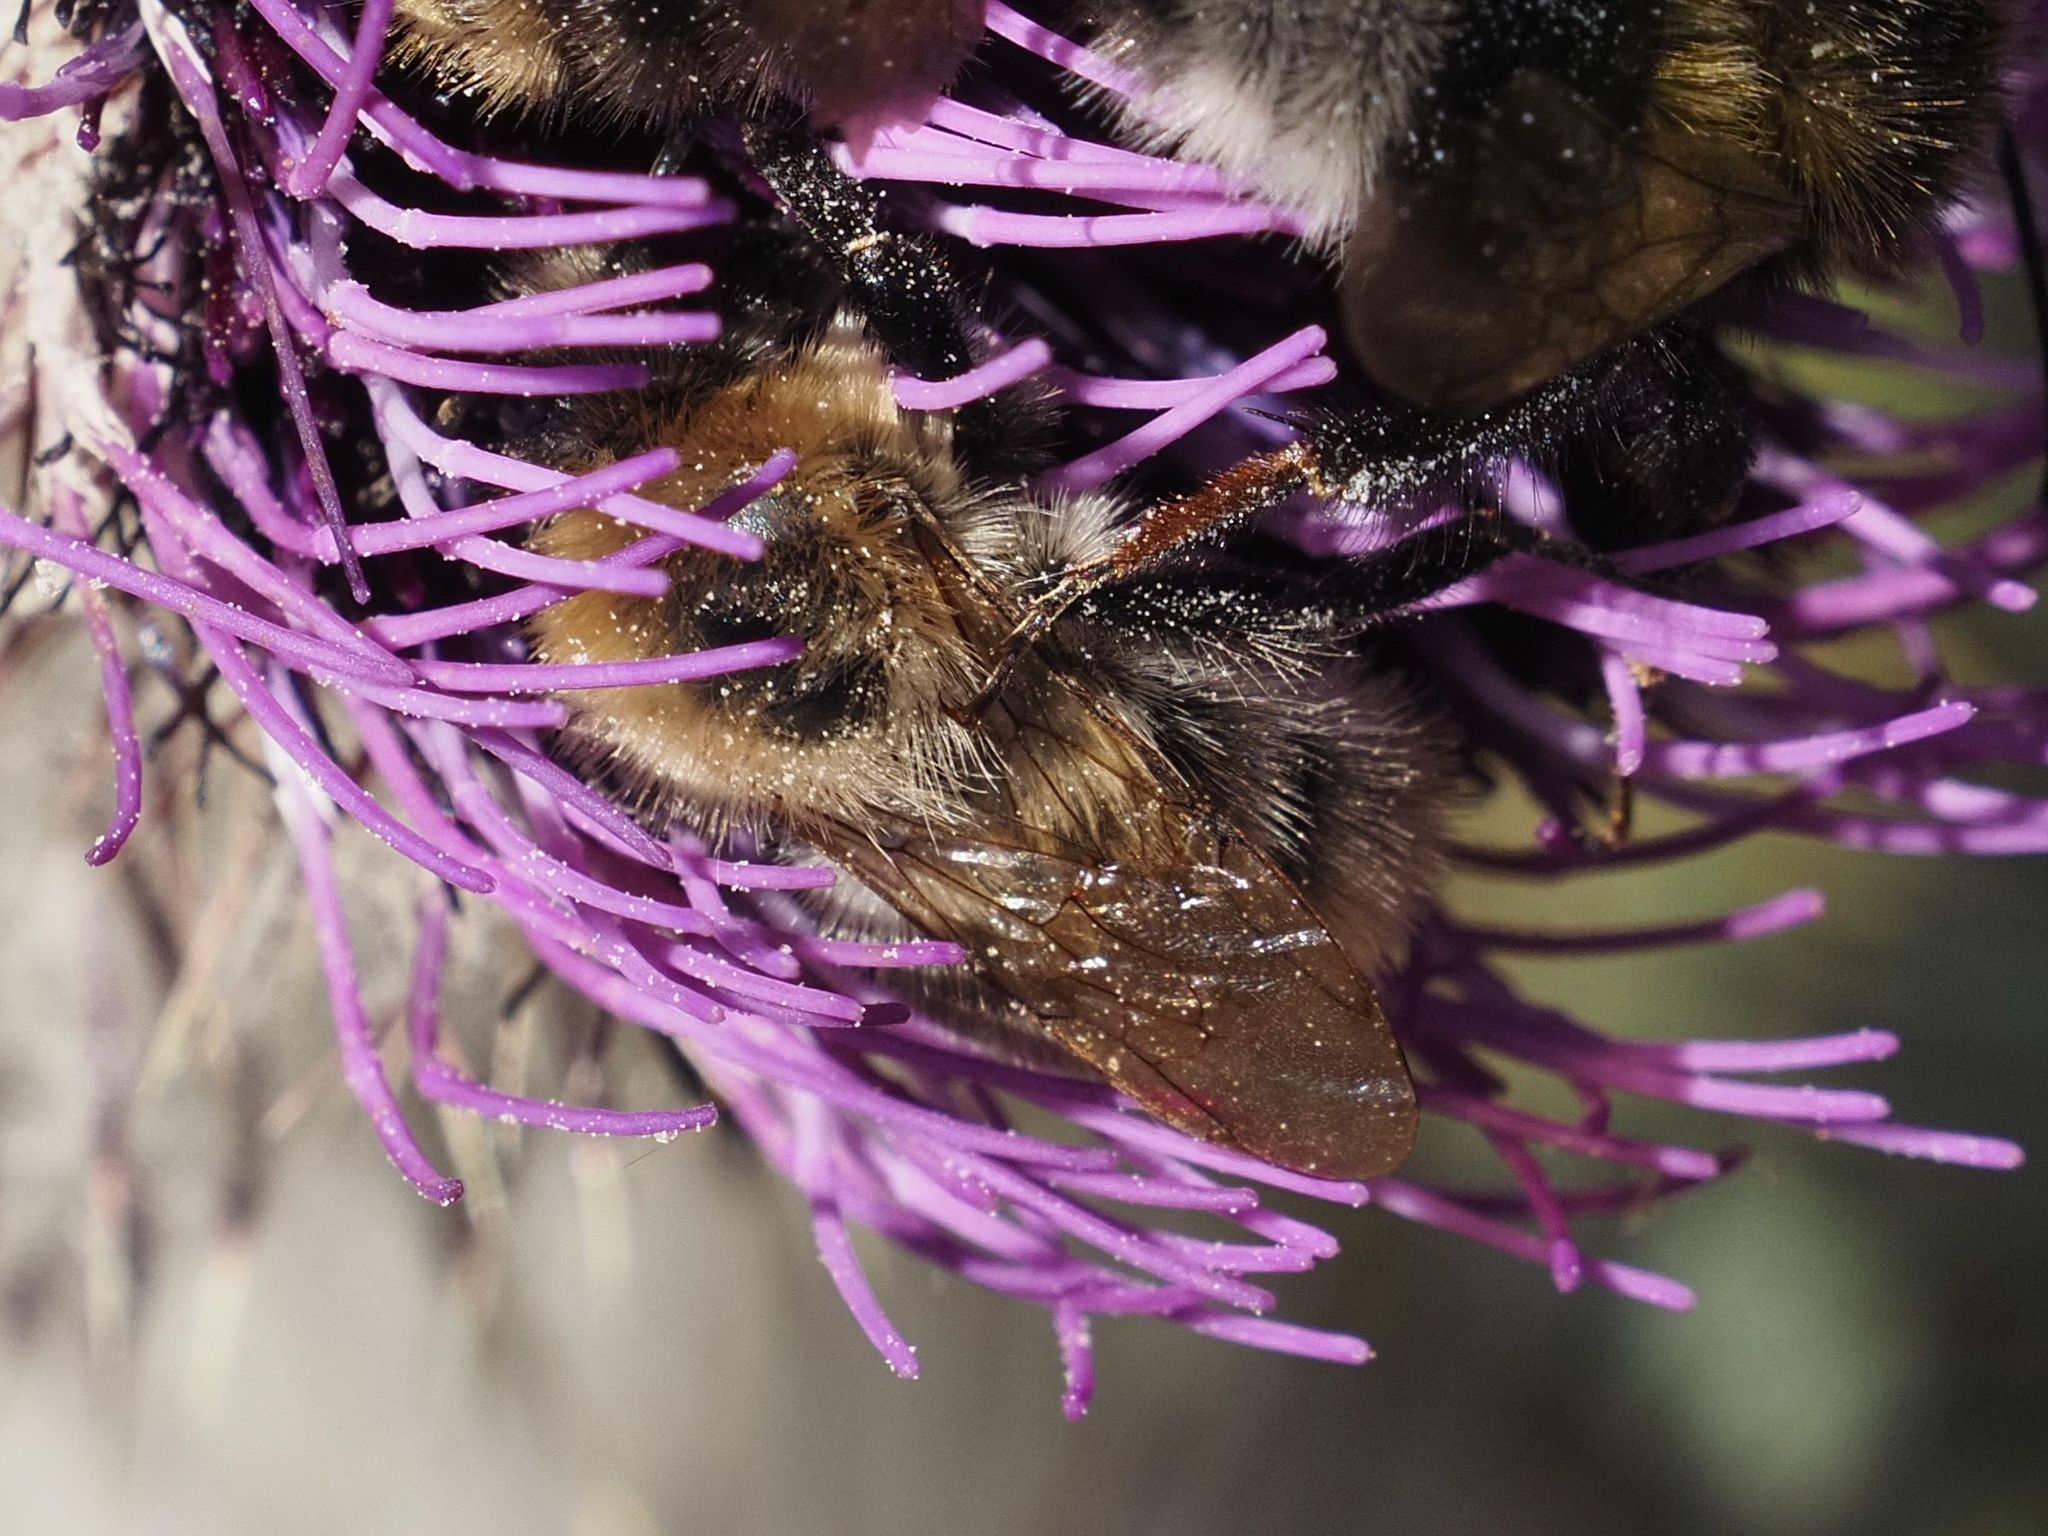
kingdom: Animalia
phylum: Arthropoda
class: Insecta
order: Hymenoptera
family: Apidae
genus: Bombus
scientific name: Bombus pascuorum
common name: Common carder bee
